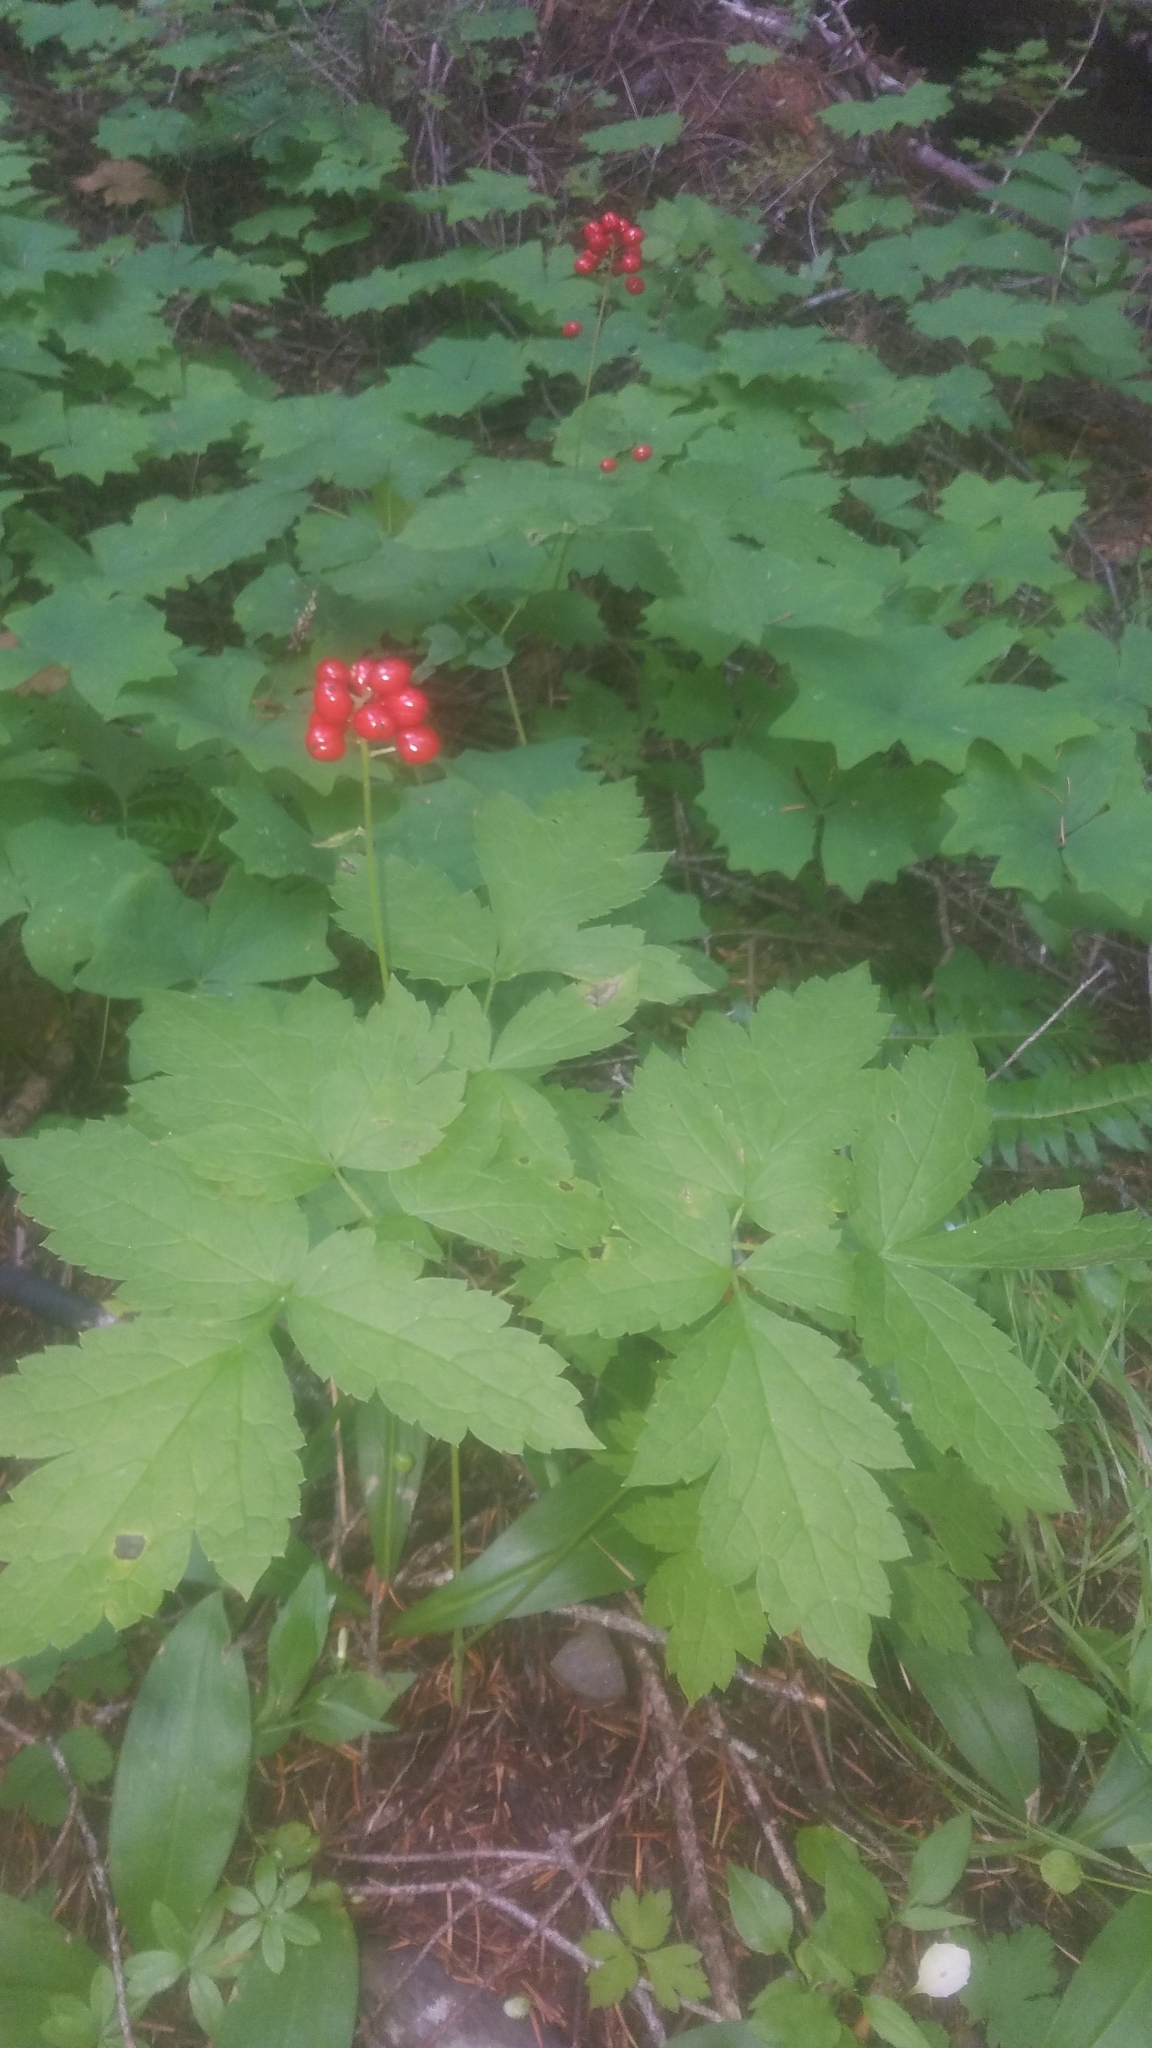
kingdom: Plantae
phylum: Tracheophyta
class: Magnoliopsida
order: Ranunculales
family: Ranunculaceae
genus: Actaea
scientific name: Actaea rubra
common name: Red baneberry
